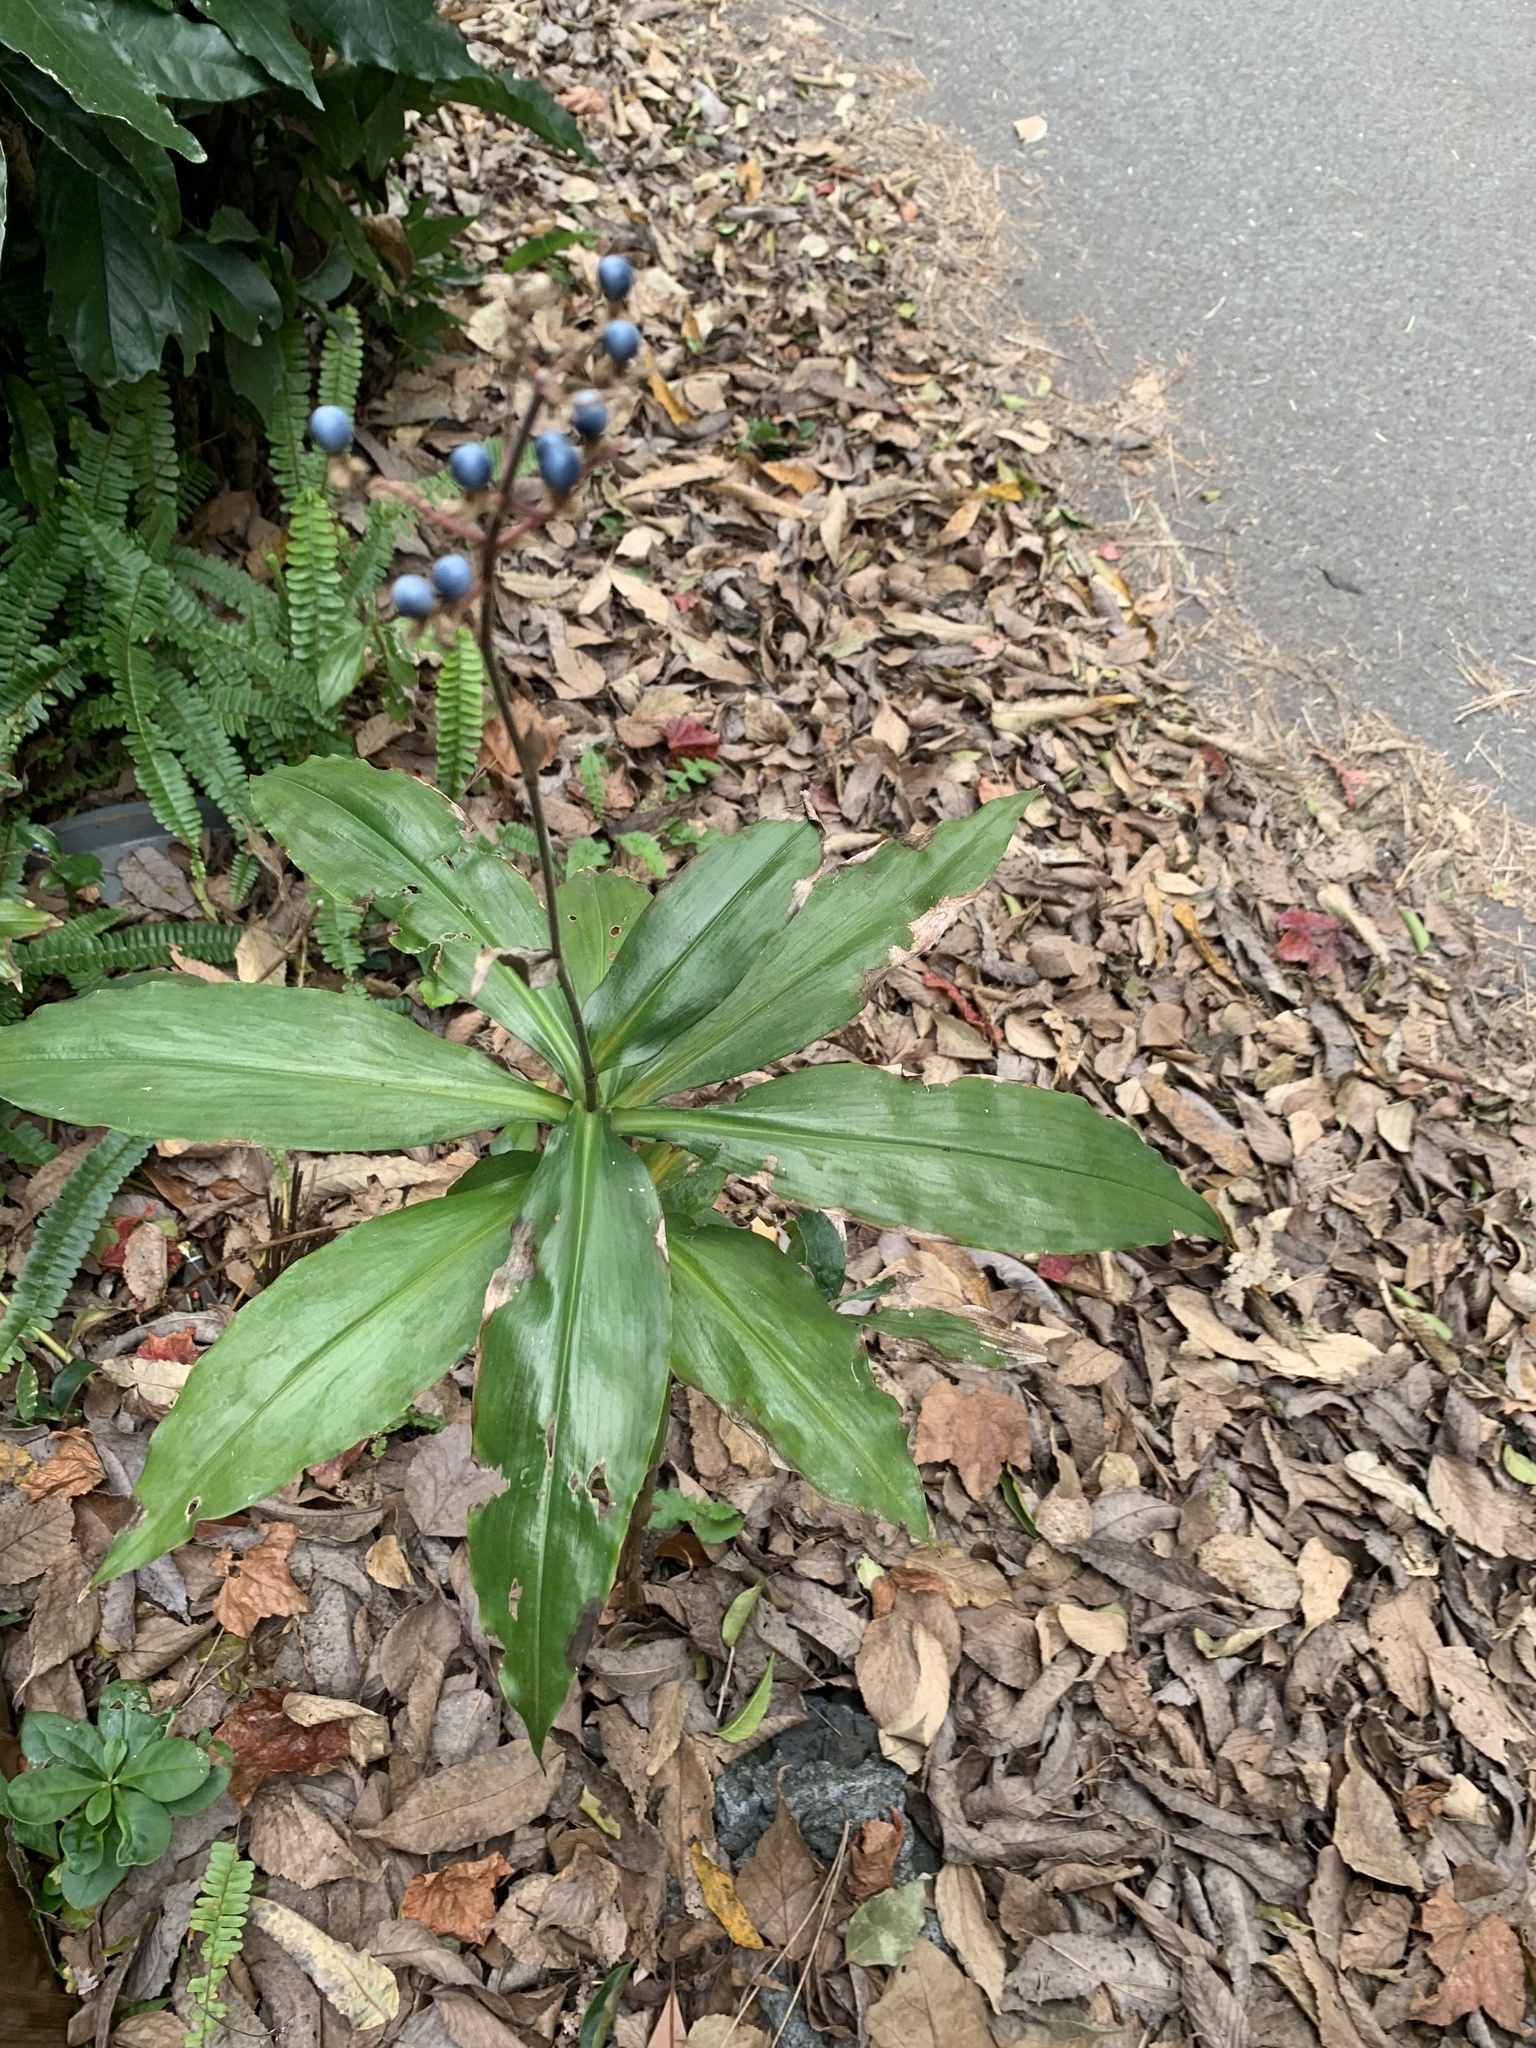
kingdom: Plantae
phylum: Tracheophyta
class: Liliopsida
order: Commelinales
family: Commelinaceae
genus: Pollia
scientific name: Pollia japonica
